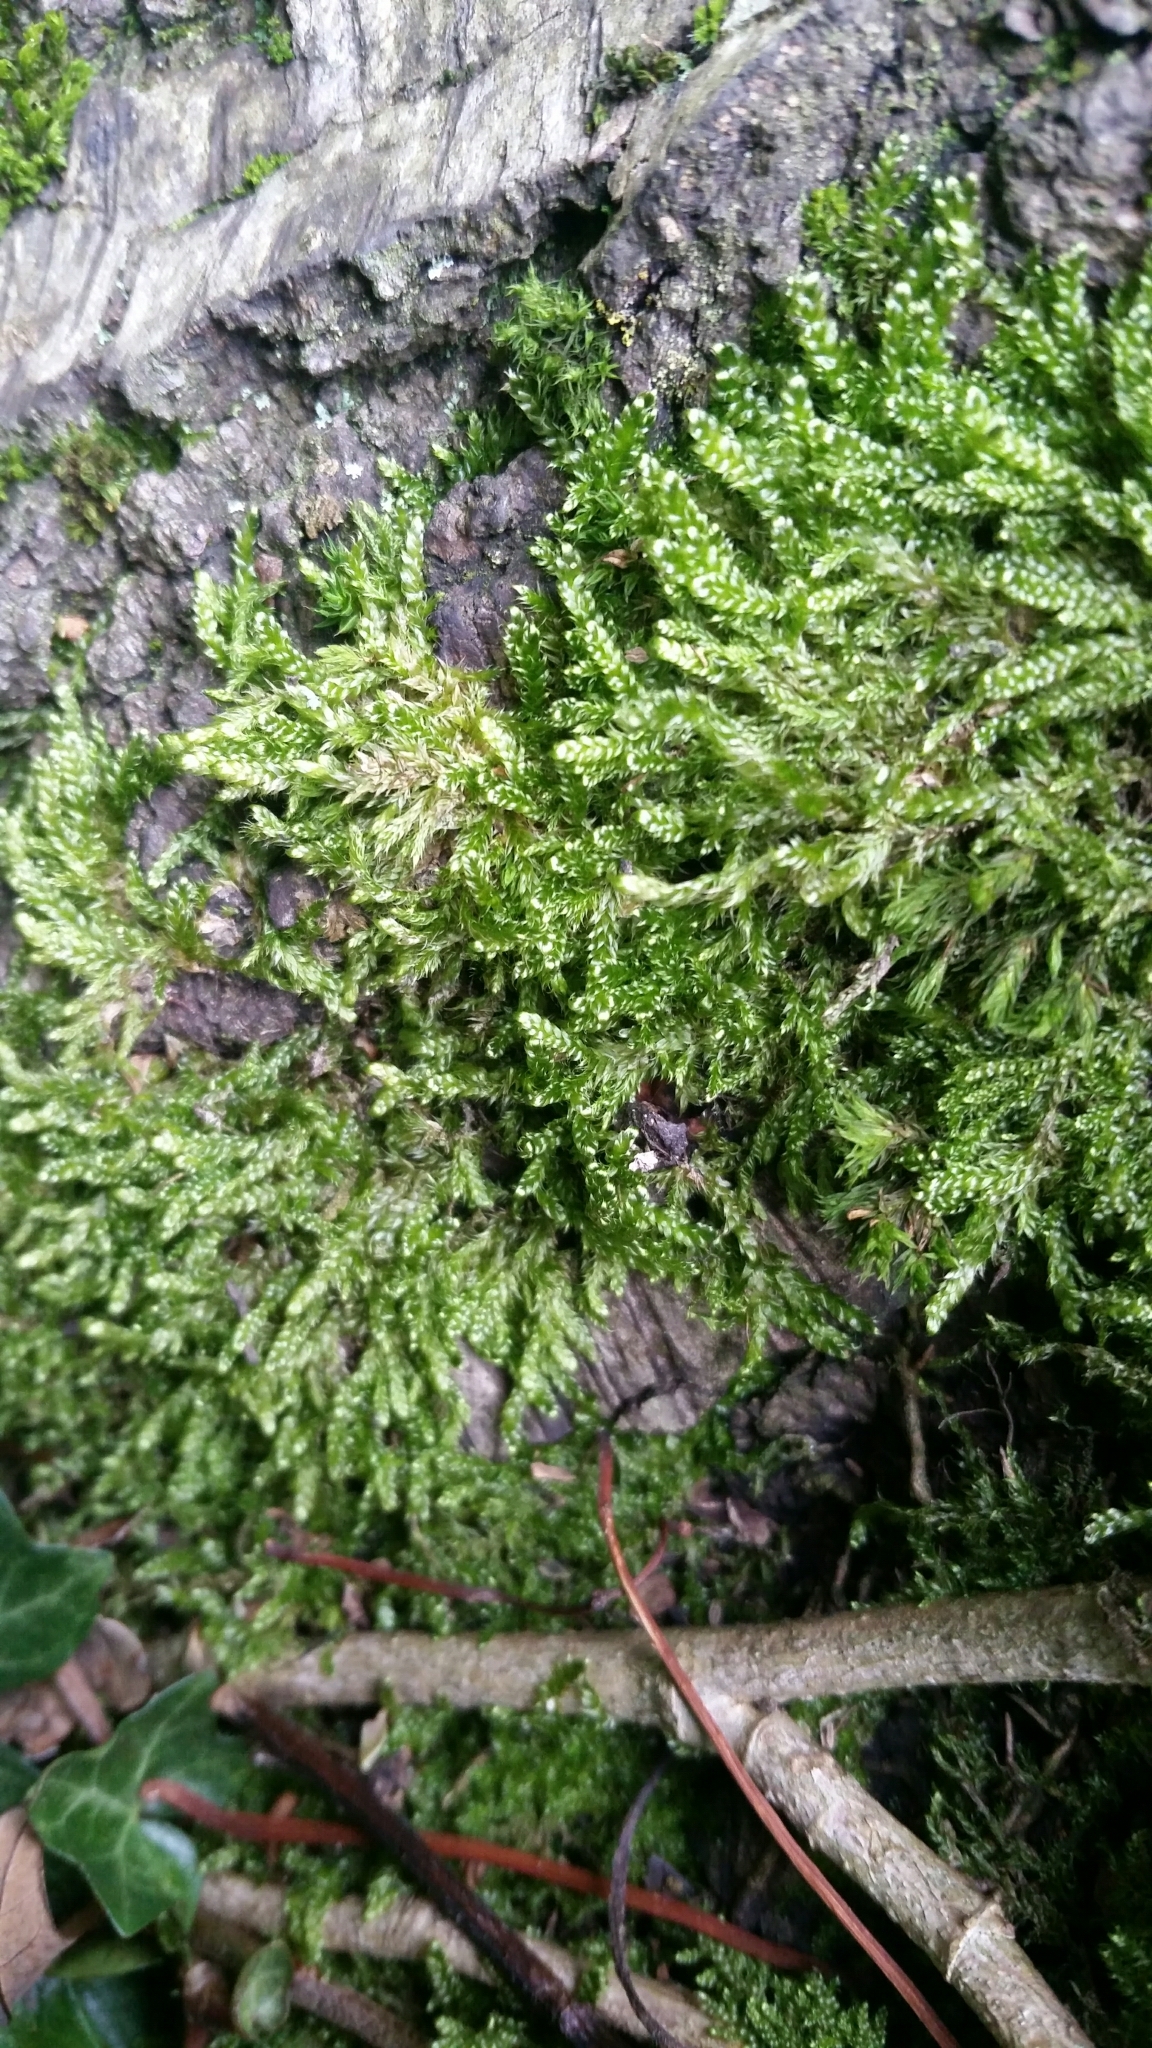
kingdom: Plantae
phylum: Bryophyta
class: Bryopsida
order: Hypnales
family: Hypnaceae
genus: Hypnum
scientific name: Hypnum cupressiforme
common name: Cypress-leaved plait-moss
